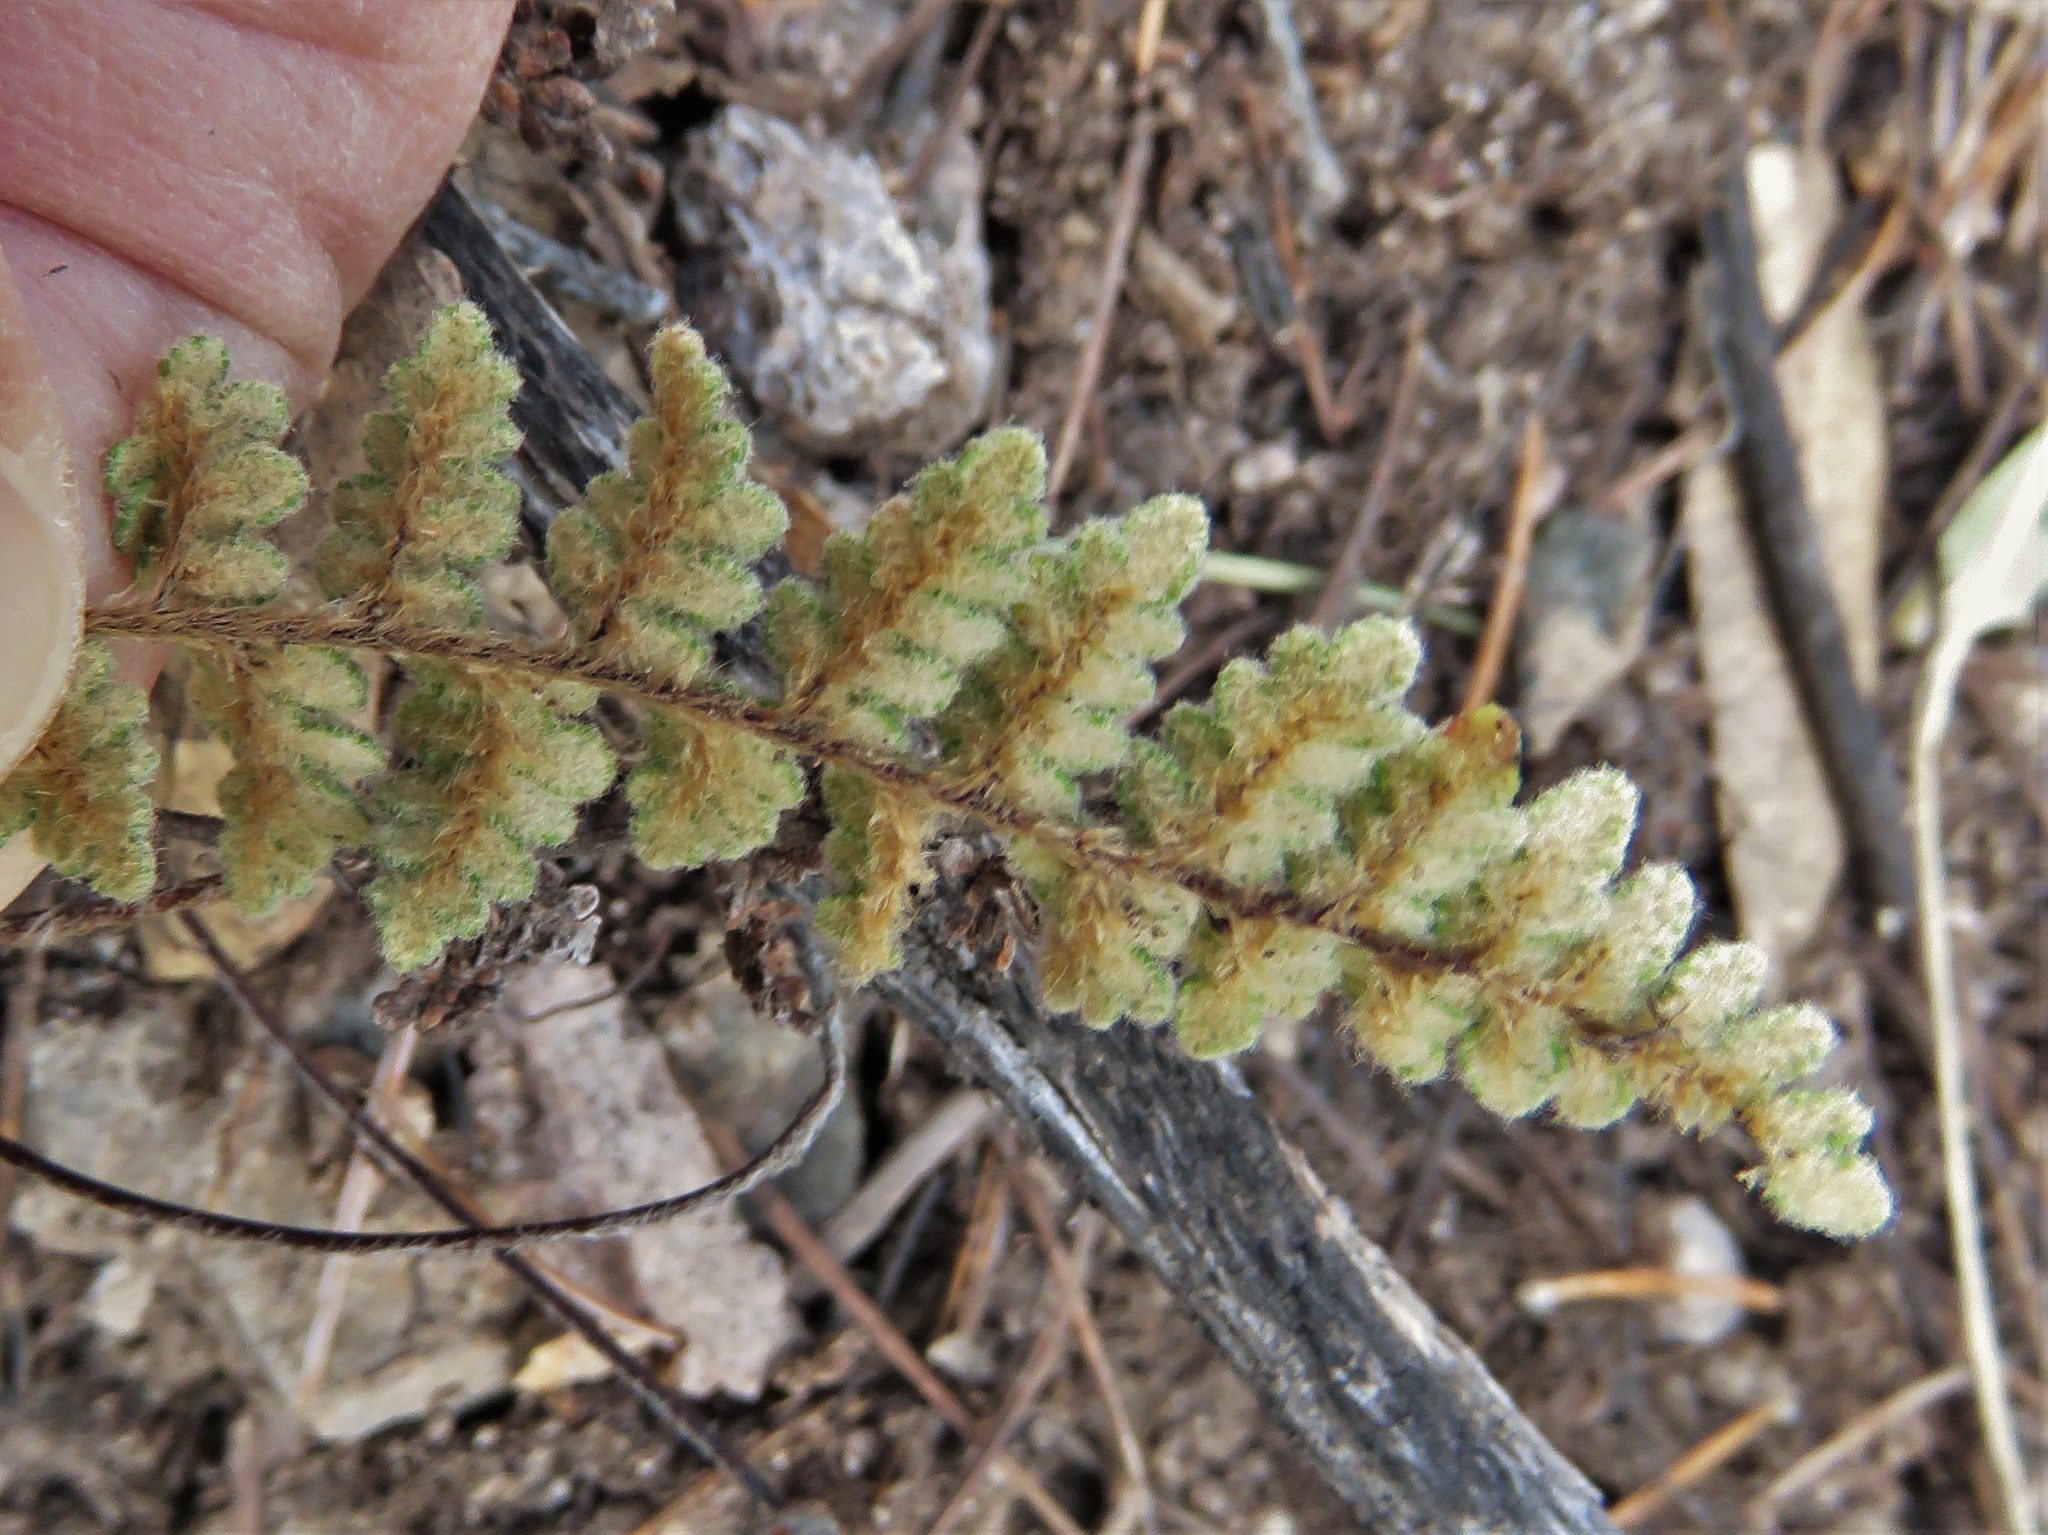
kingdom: Plantae
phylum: Tracheophyta
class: Polypodiopsida
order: Polypodiales
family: Pteridaceae
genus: Myriopteris
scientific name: Myriopteris rufa
